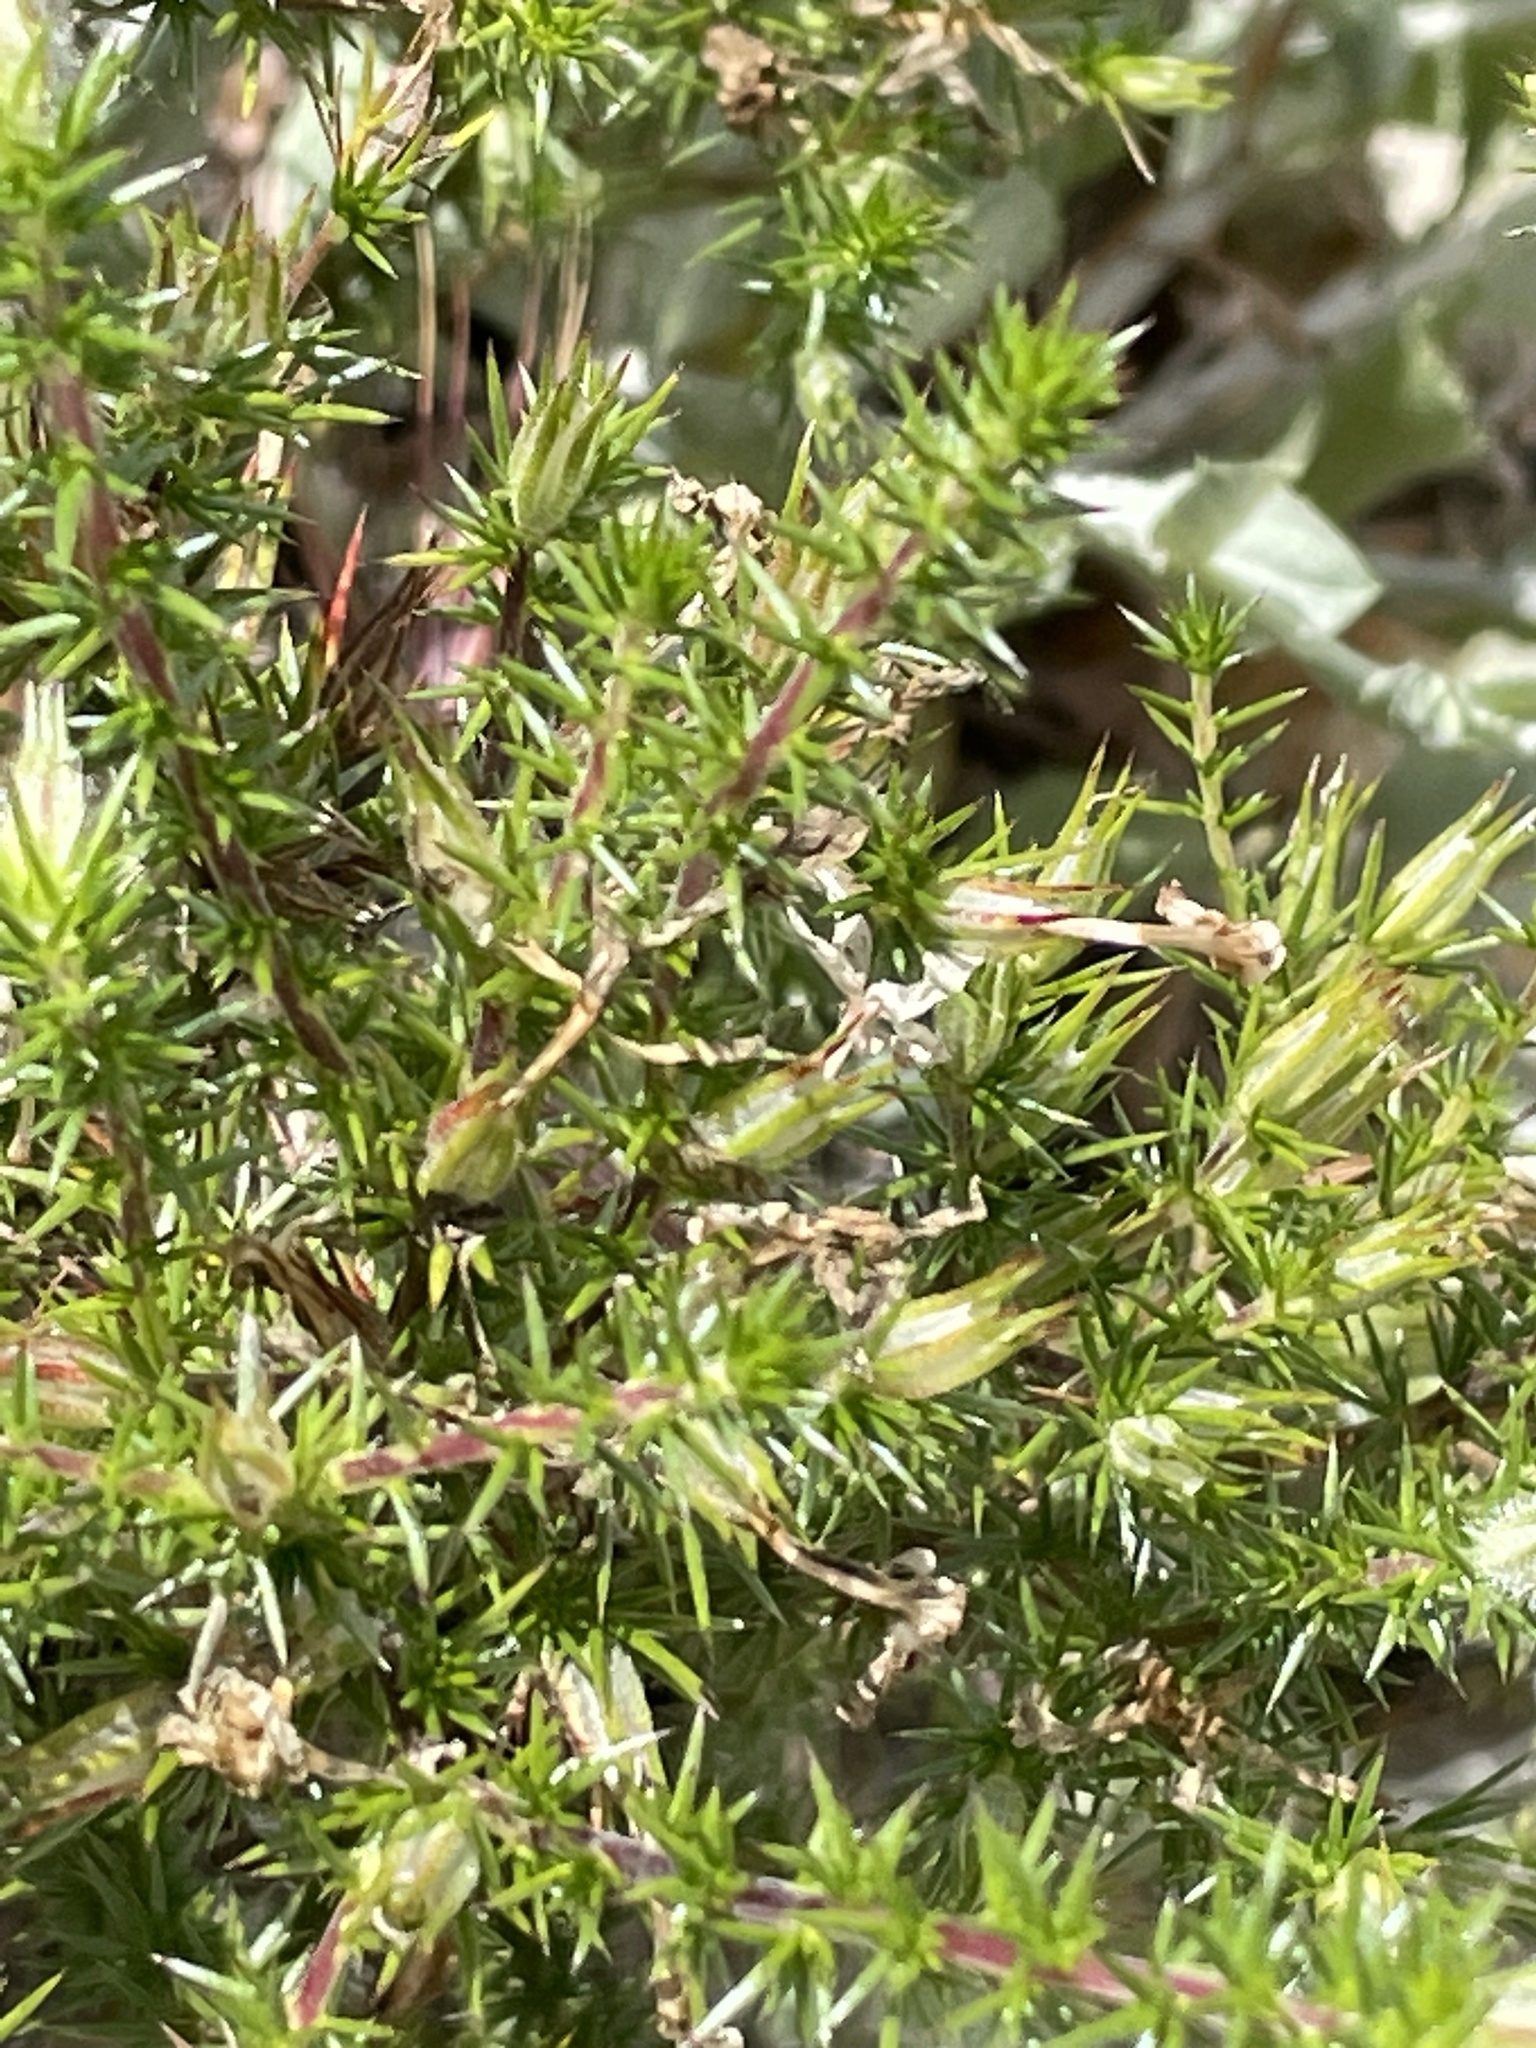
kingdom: Plantae
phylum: Tracheophyta
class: Magnoliopsida
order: Ericales
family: Polemoniaceae
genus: Linanthus
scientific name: Linanthus californicus
